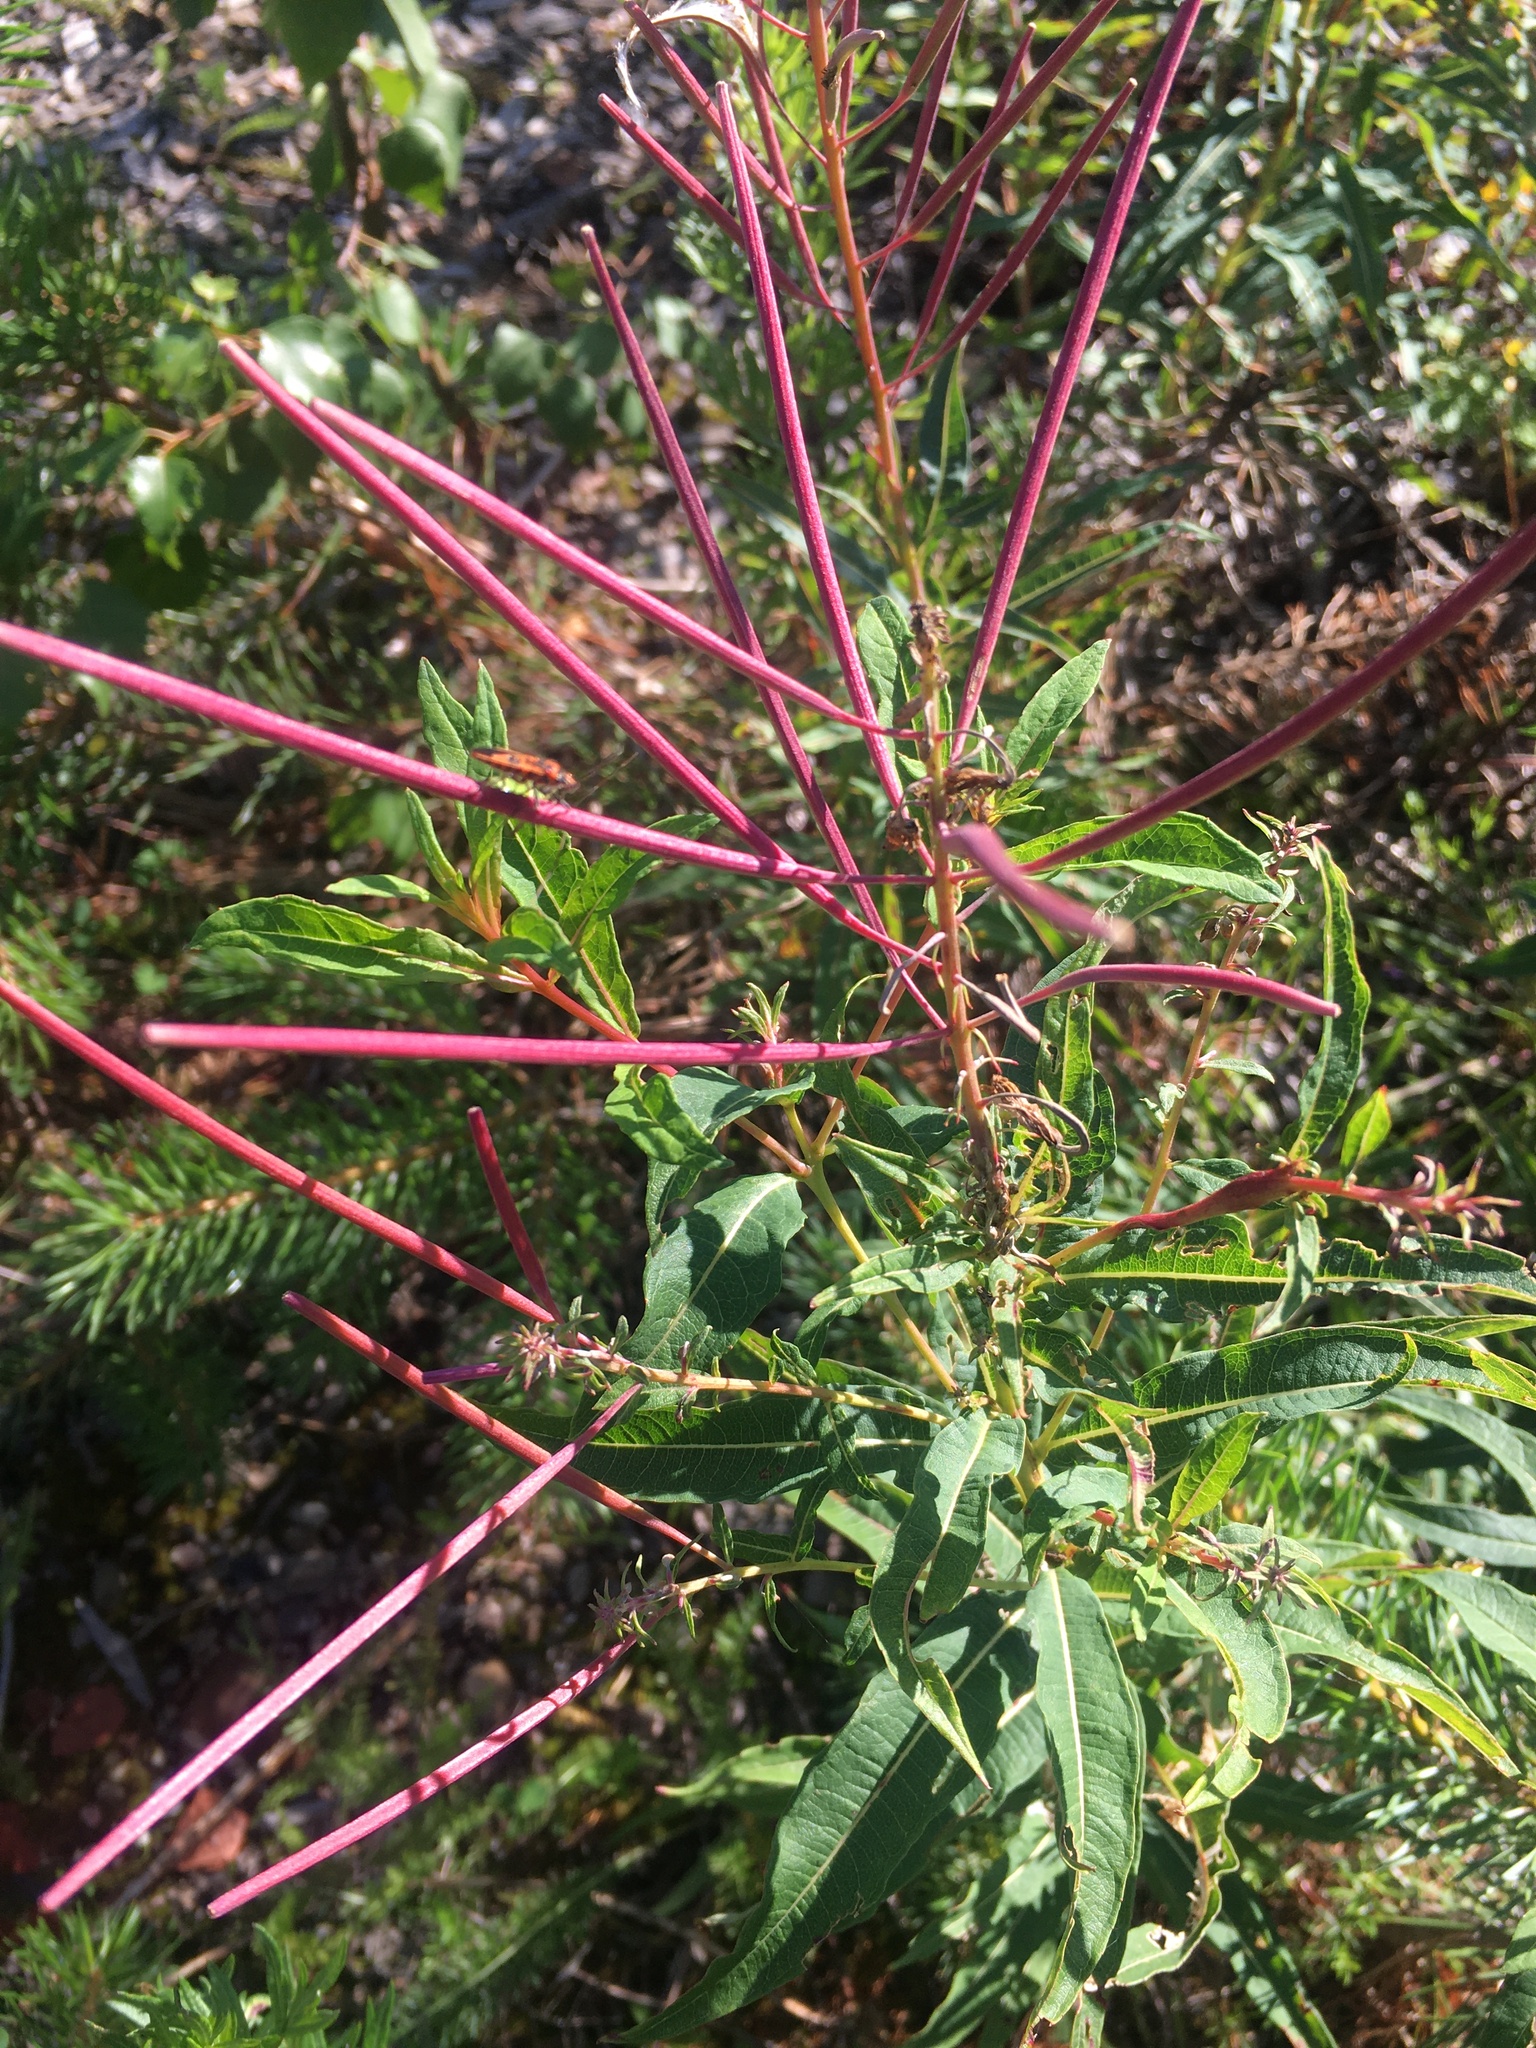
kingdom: Plantae
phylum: Tracheophyta
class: Magnoliopsida
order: Myrtales
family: Onagraceae
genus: Chamaenerion
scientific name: Chamaenerion angustifolium
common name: Fireweed
